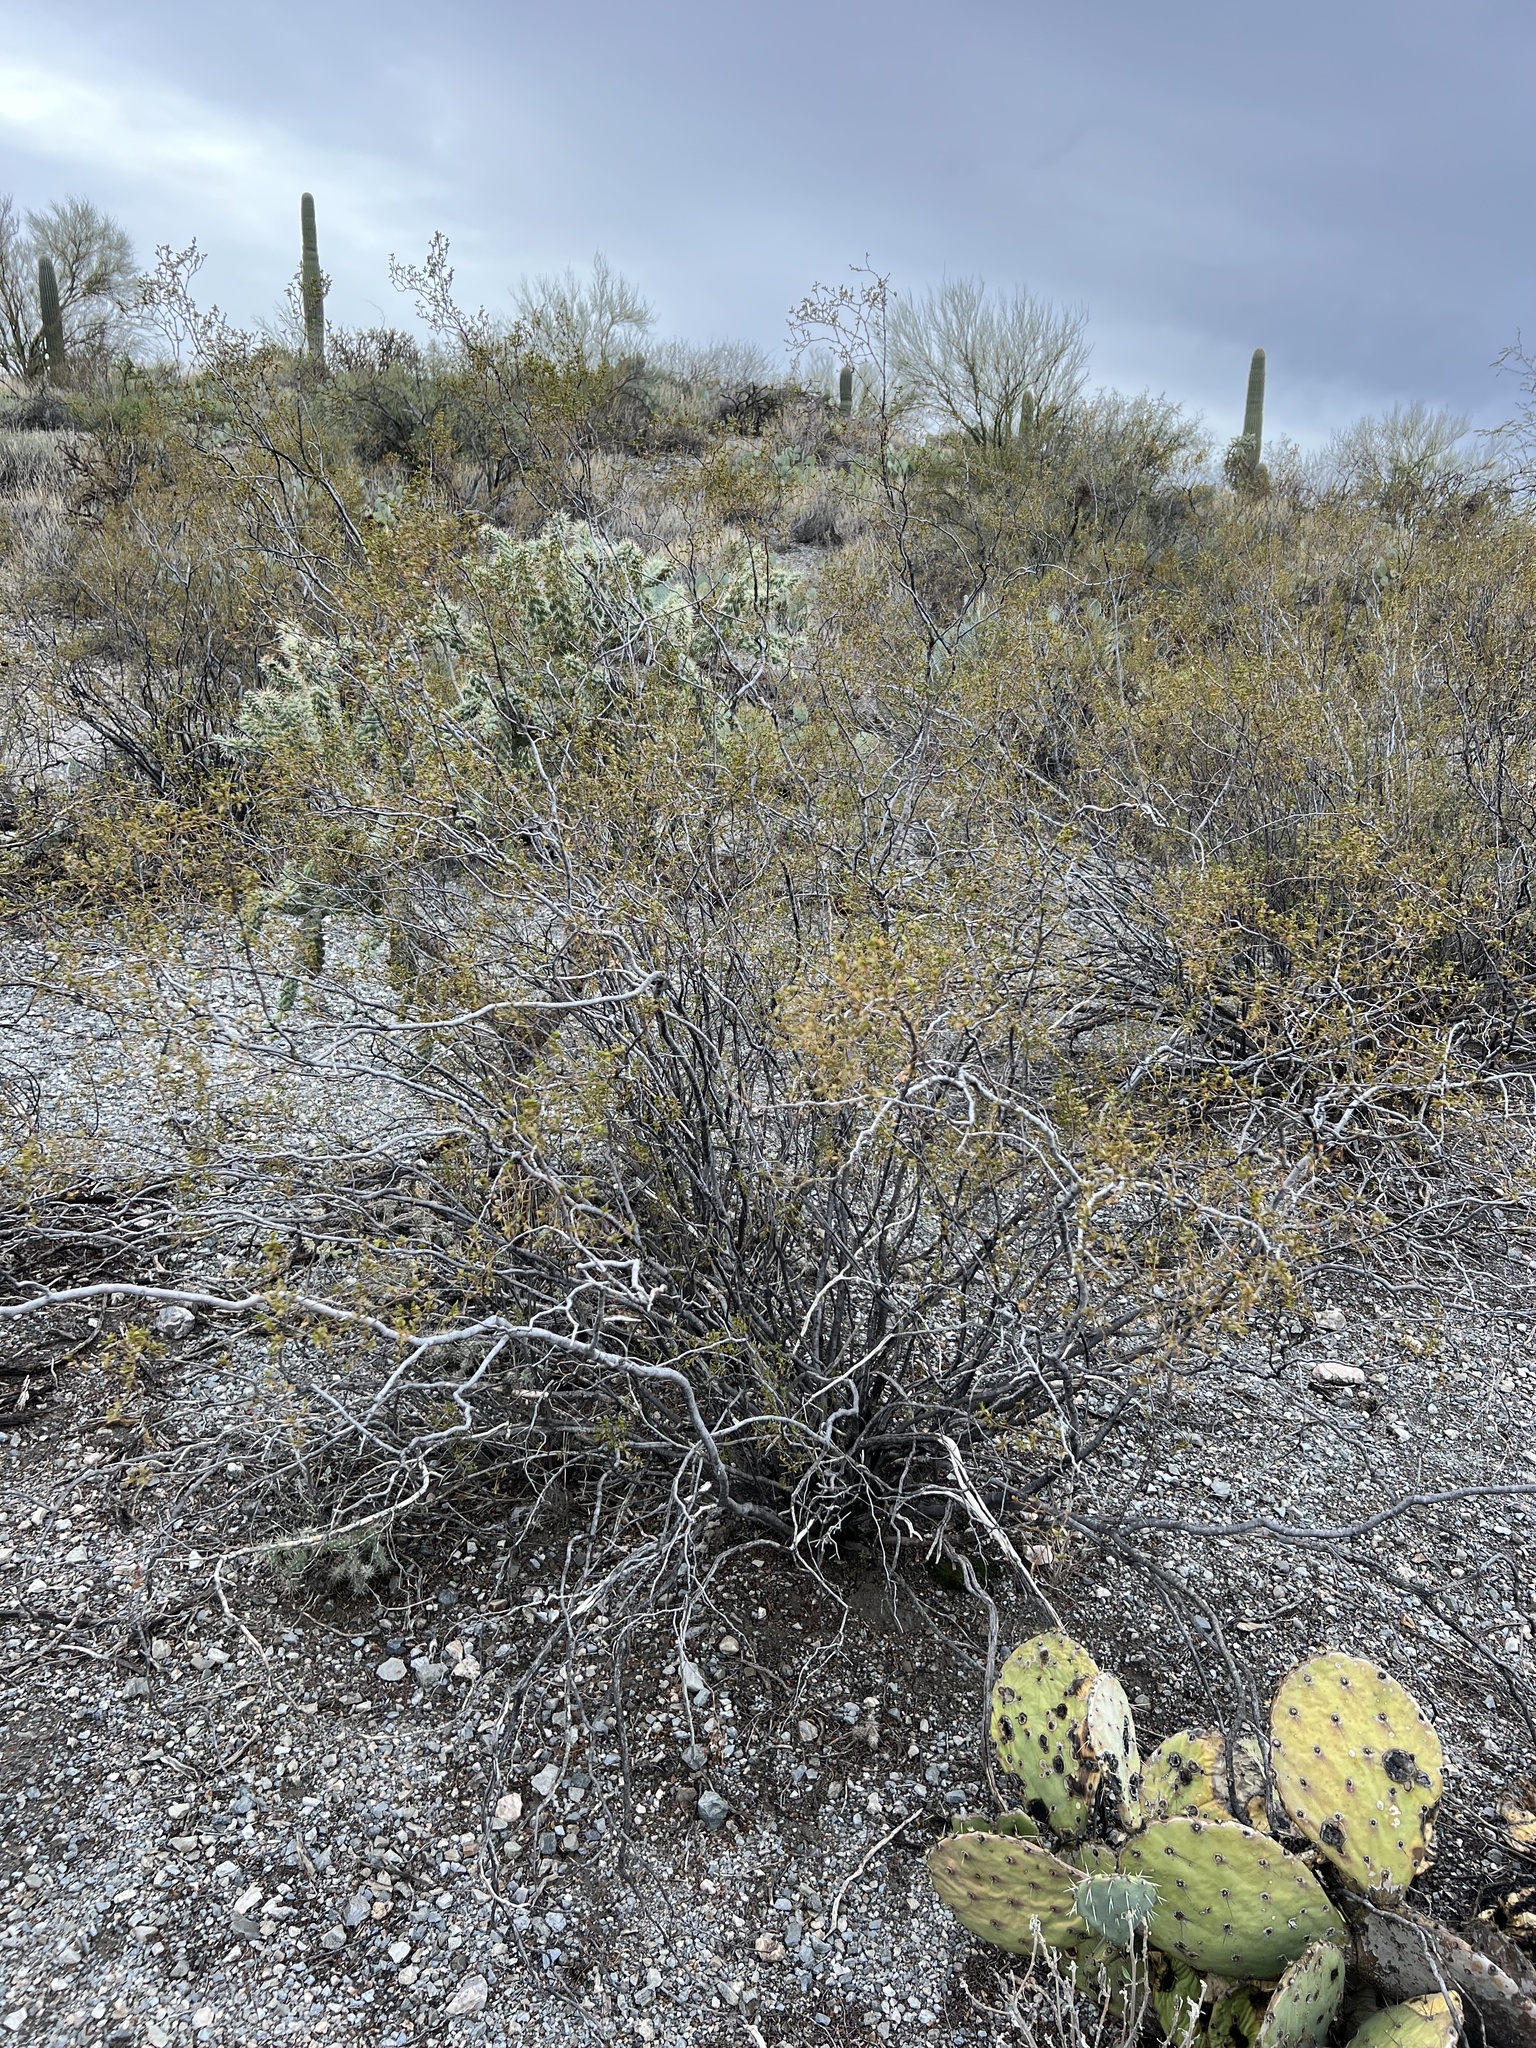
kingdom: Plantae
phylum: Tracheophyta
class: Magnoliopsida
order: Zygophyllales
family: Zygophyllaceae
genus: Larrea
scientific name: Larrea tridentata
